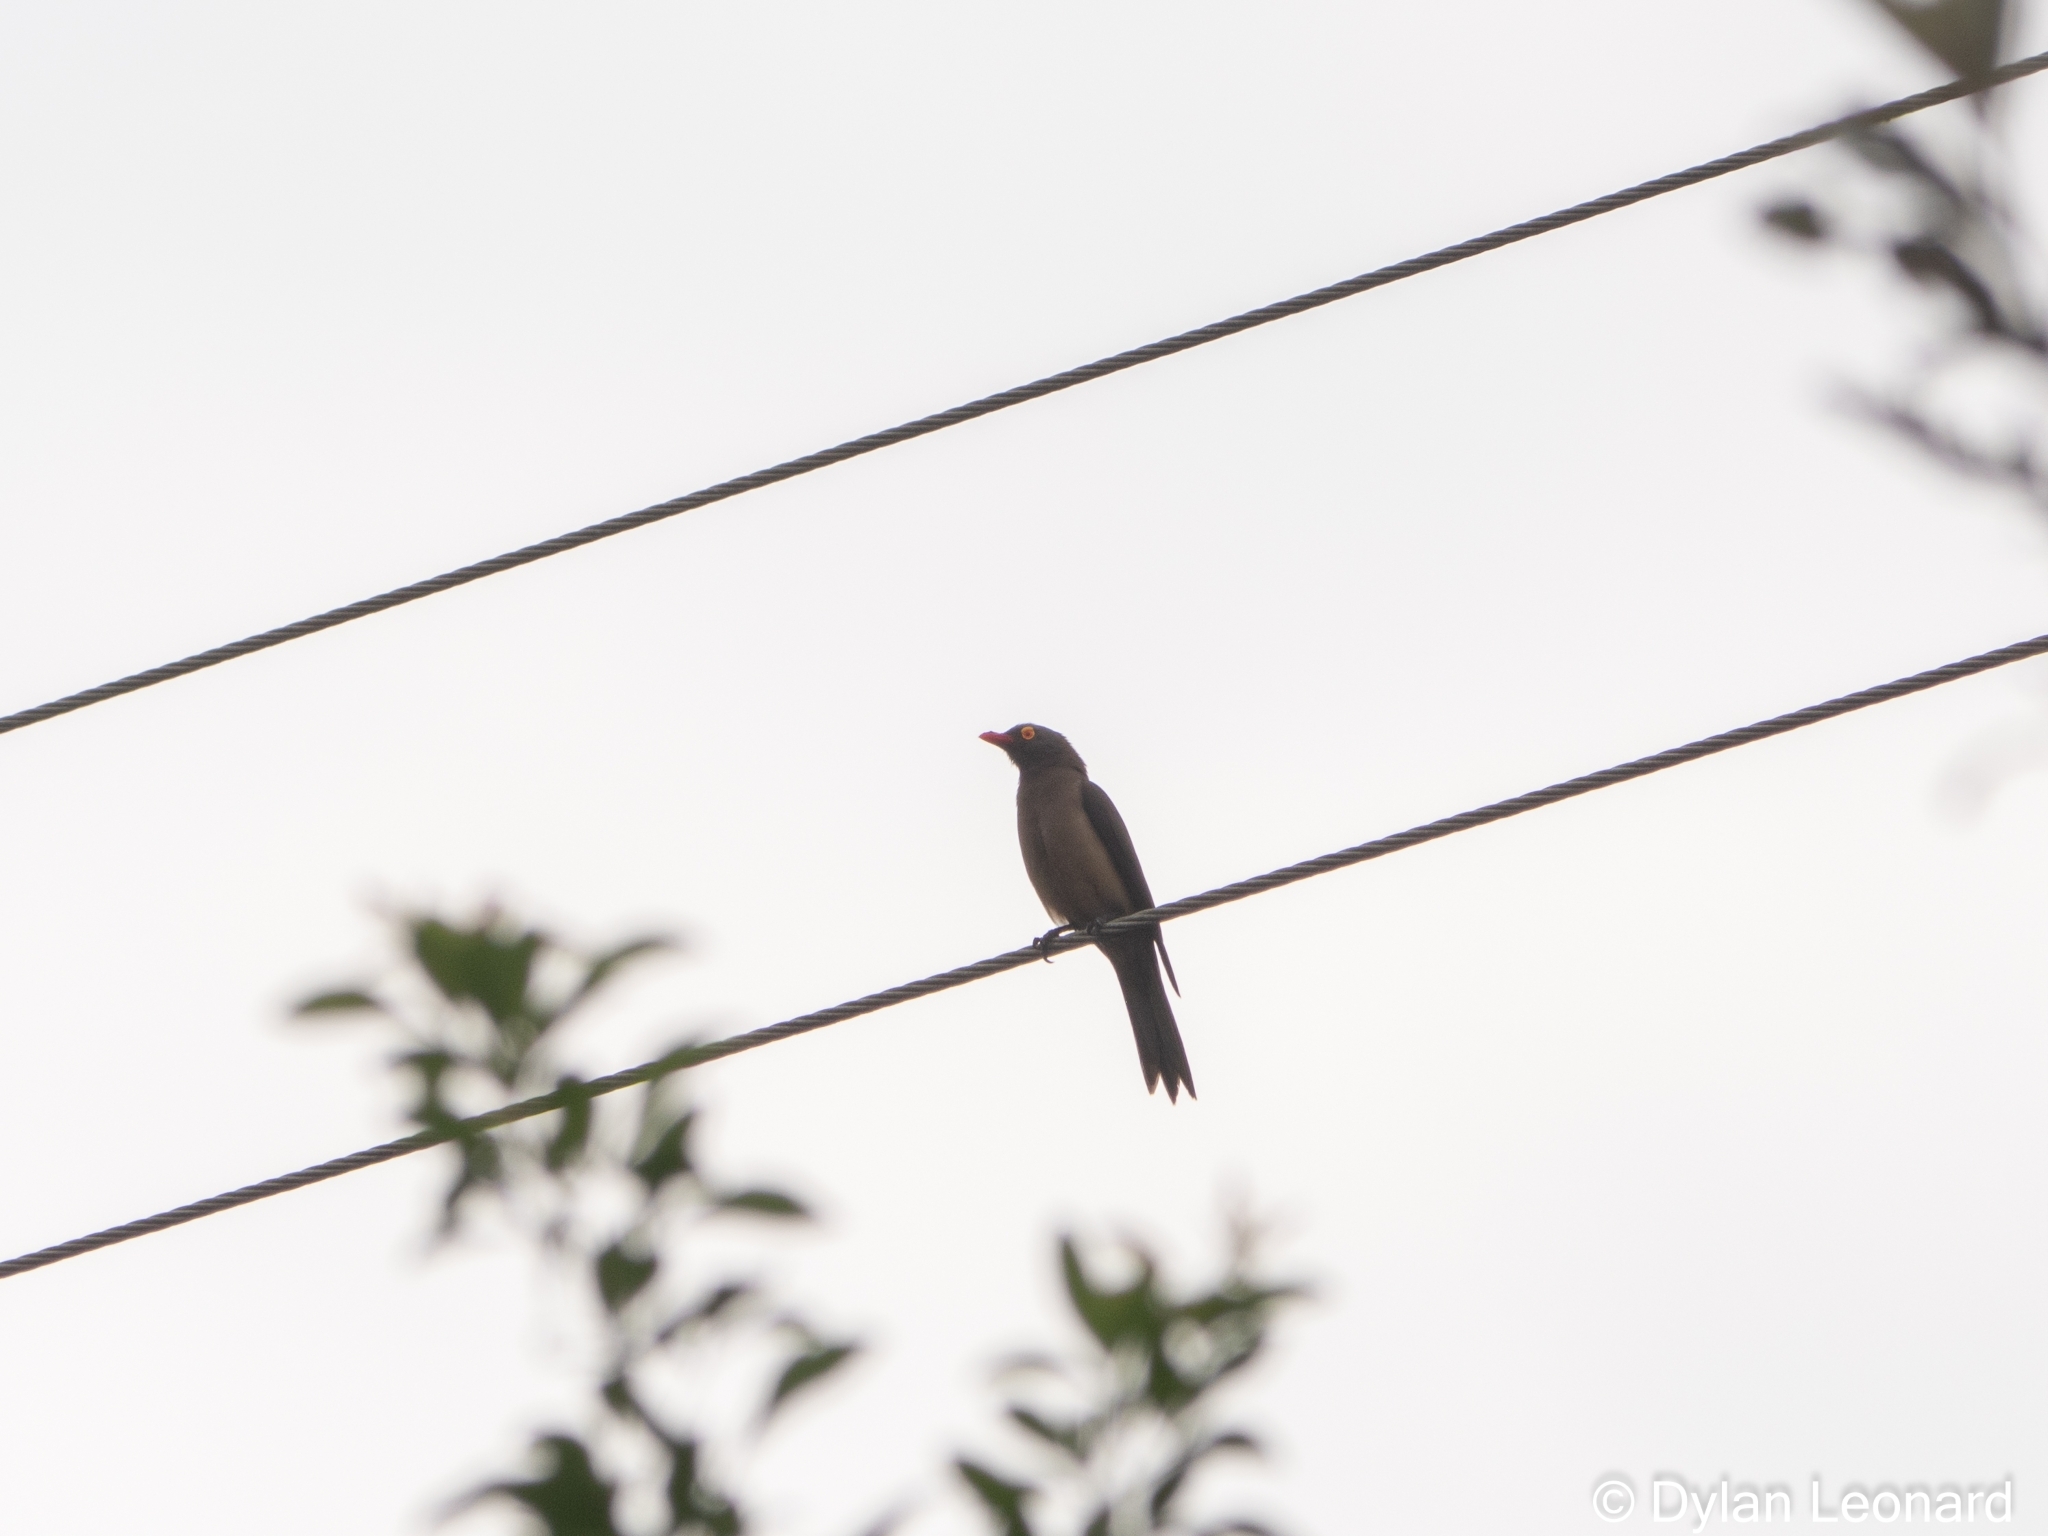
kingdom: Animalia
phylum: Chordata
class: Aves
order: Passeriformes
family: Buphagidae
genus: Buphagus
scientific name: Buphagus erythrorhynchus
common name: Red-billed oxpecker
